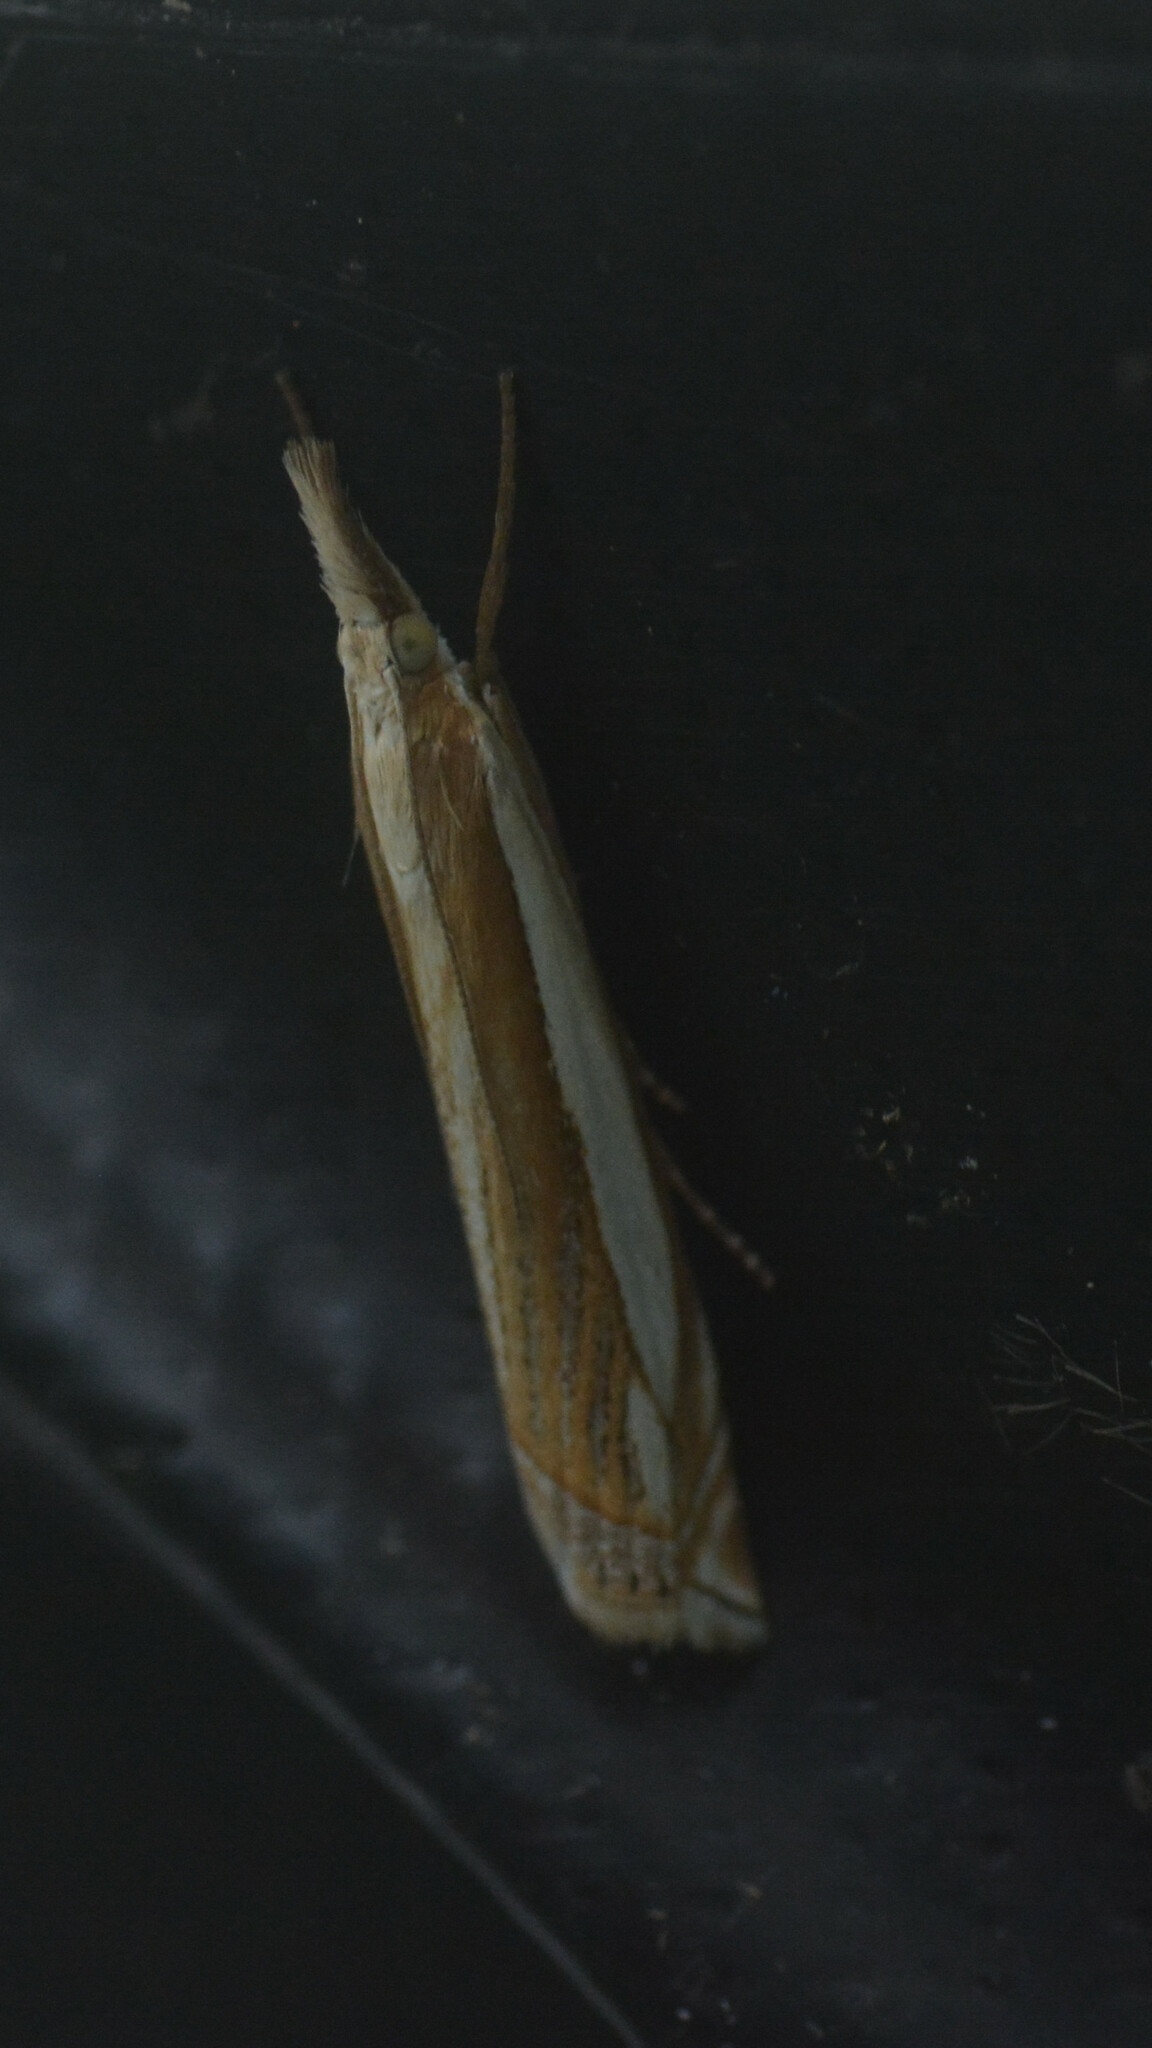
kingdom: Animalia
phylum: Arthropoda
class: Insecta
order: Lepidoptera
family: Crambidae
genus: Crambus
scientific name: Crambus pascuella
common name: Inlaid grass-veneer
